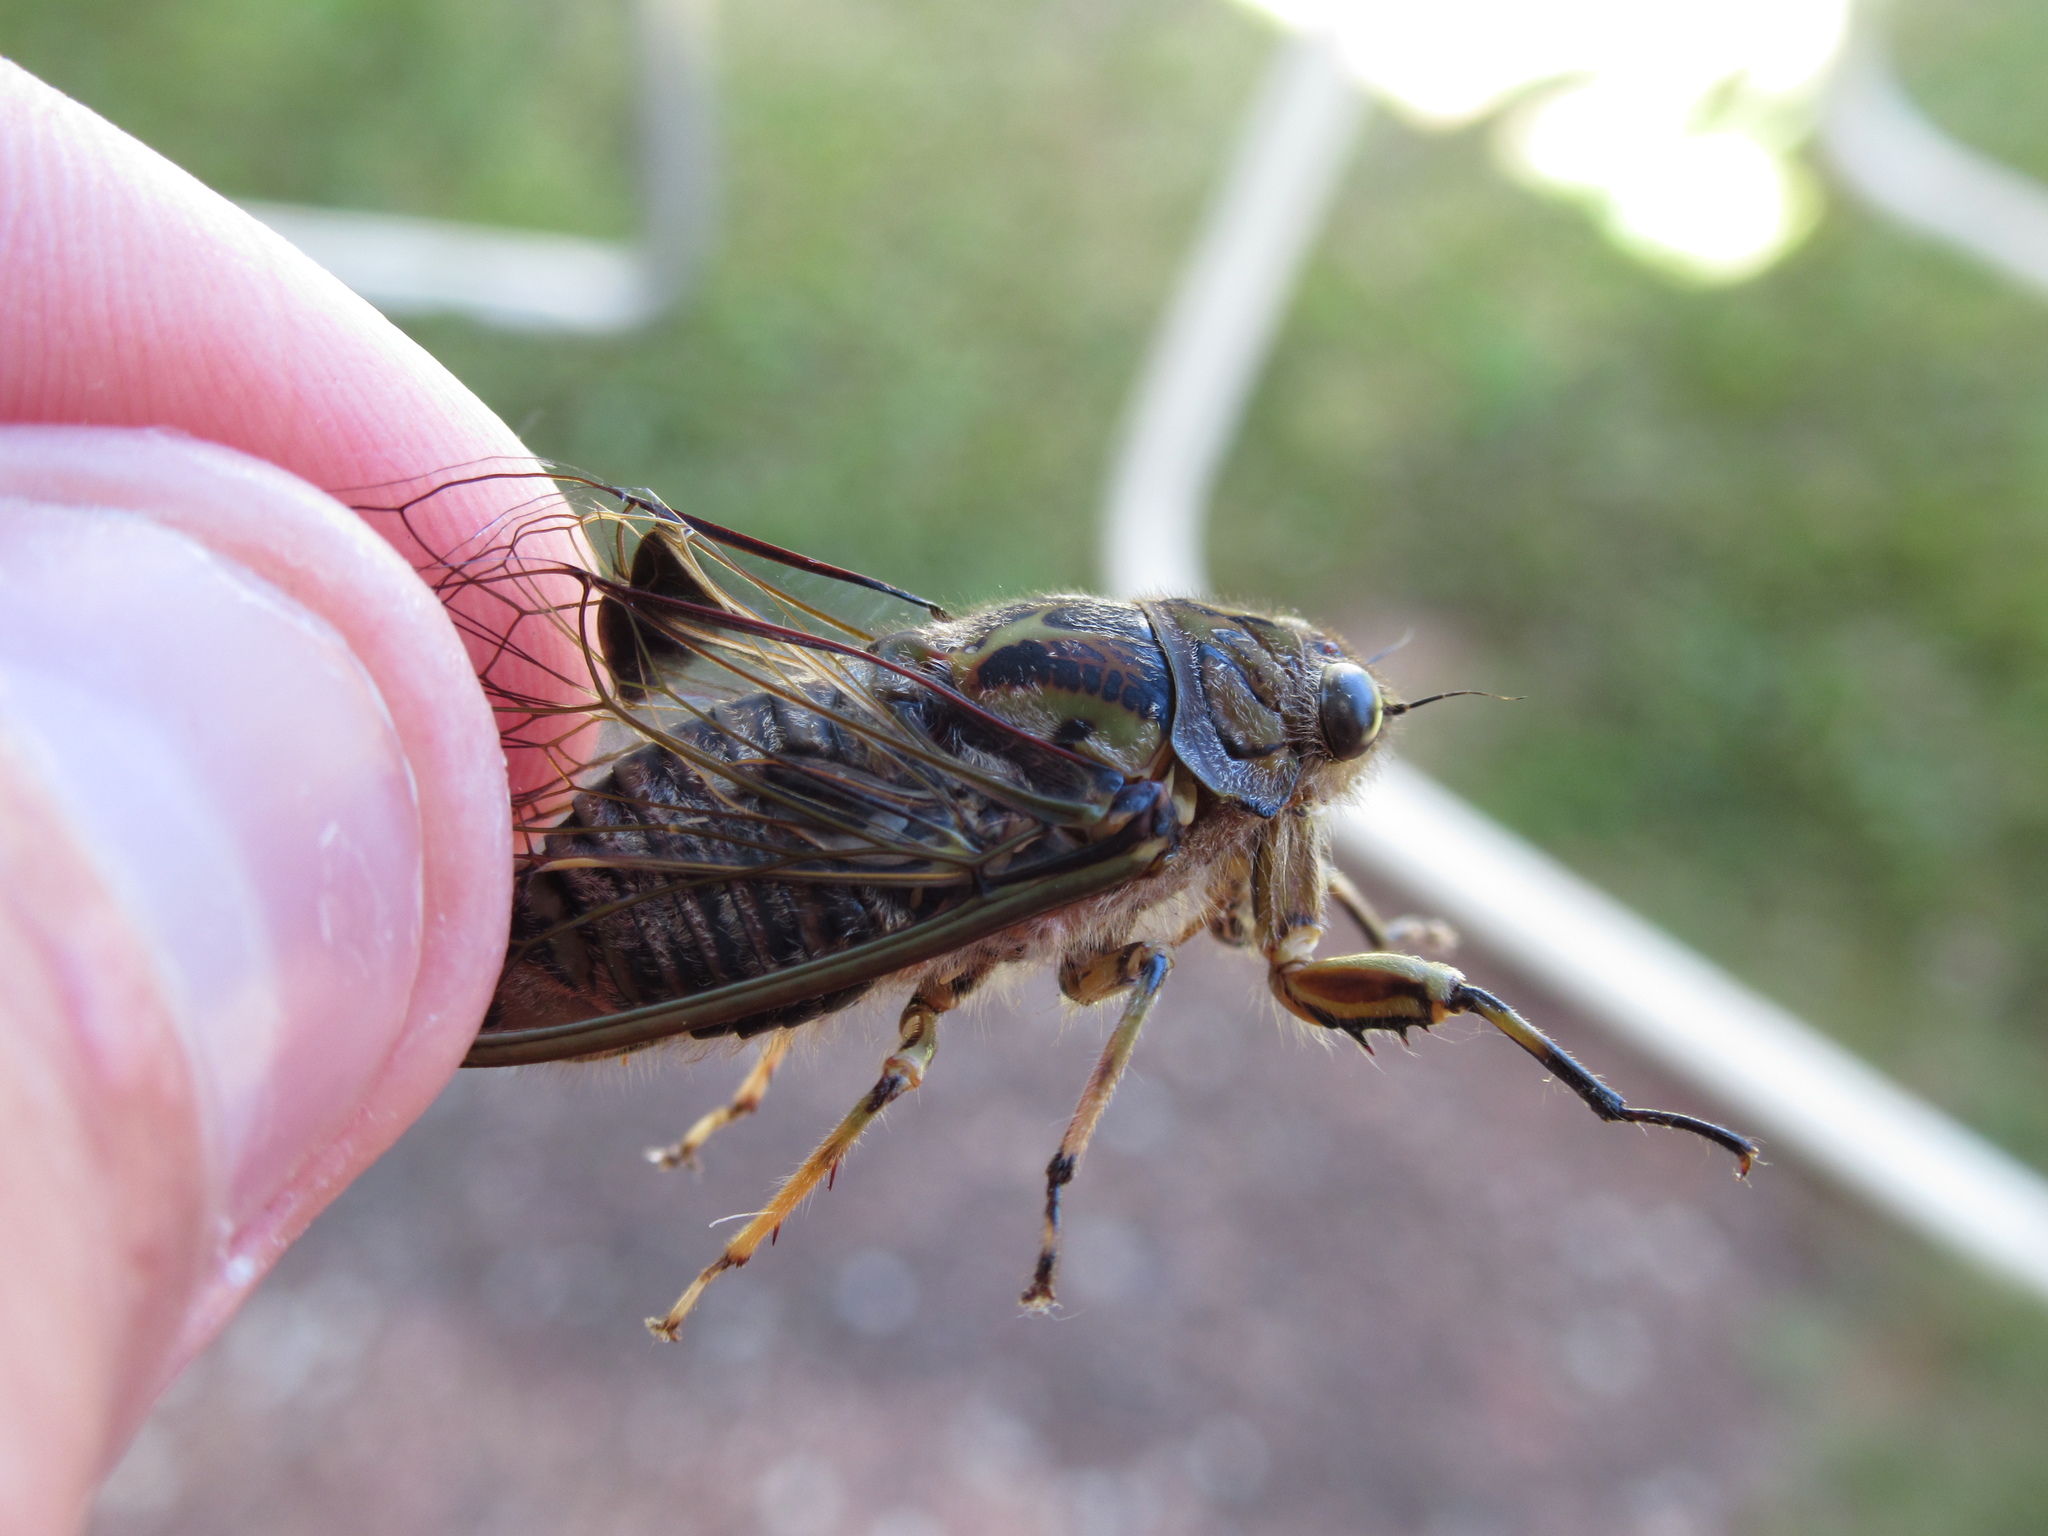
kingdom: Animalia
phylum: Arthropoda
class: Insecta
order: Hemiptera
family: Cicadidae
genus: Amphipsalta
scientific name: Amphipsalta cingulata
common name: Clapping cicada
